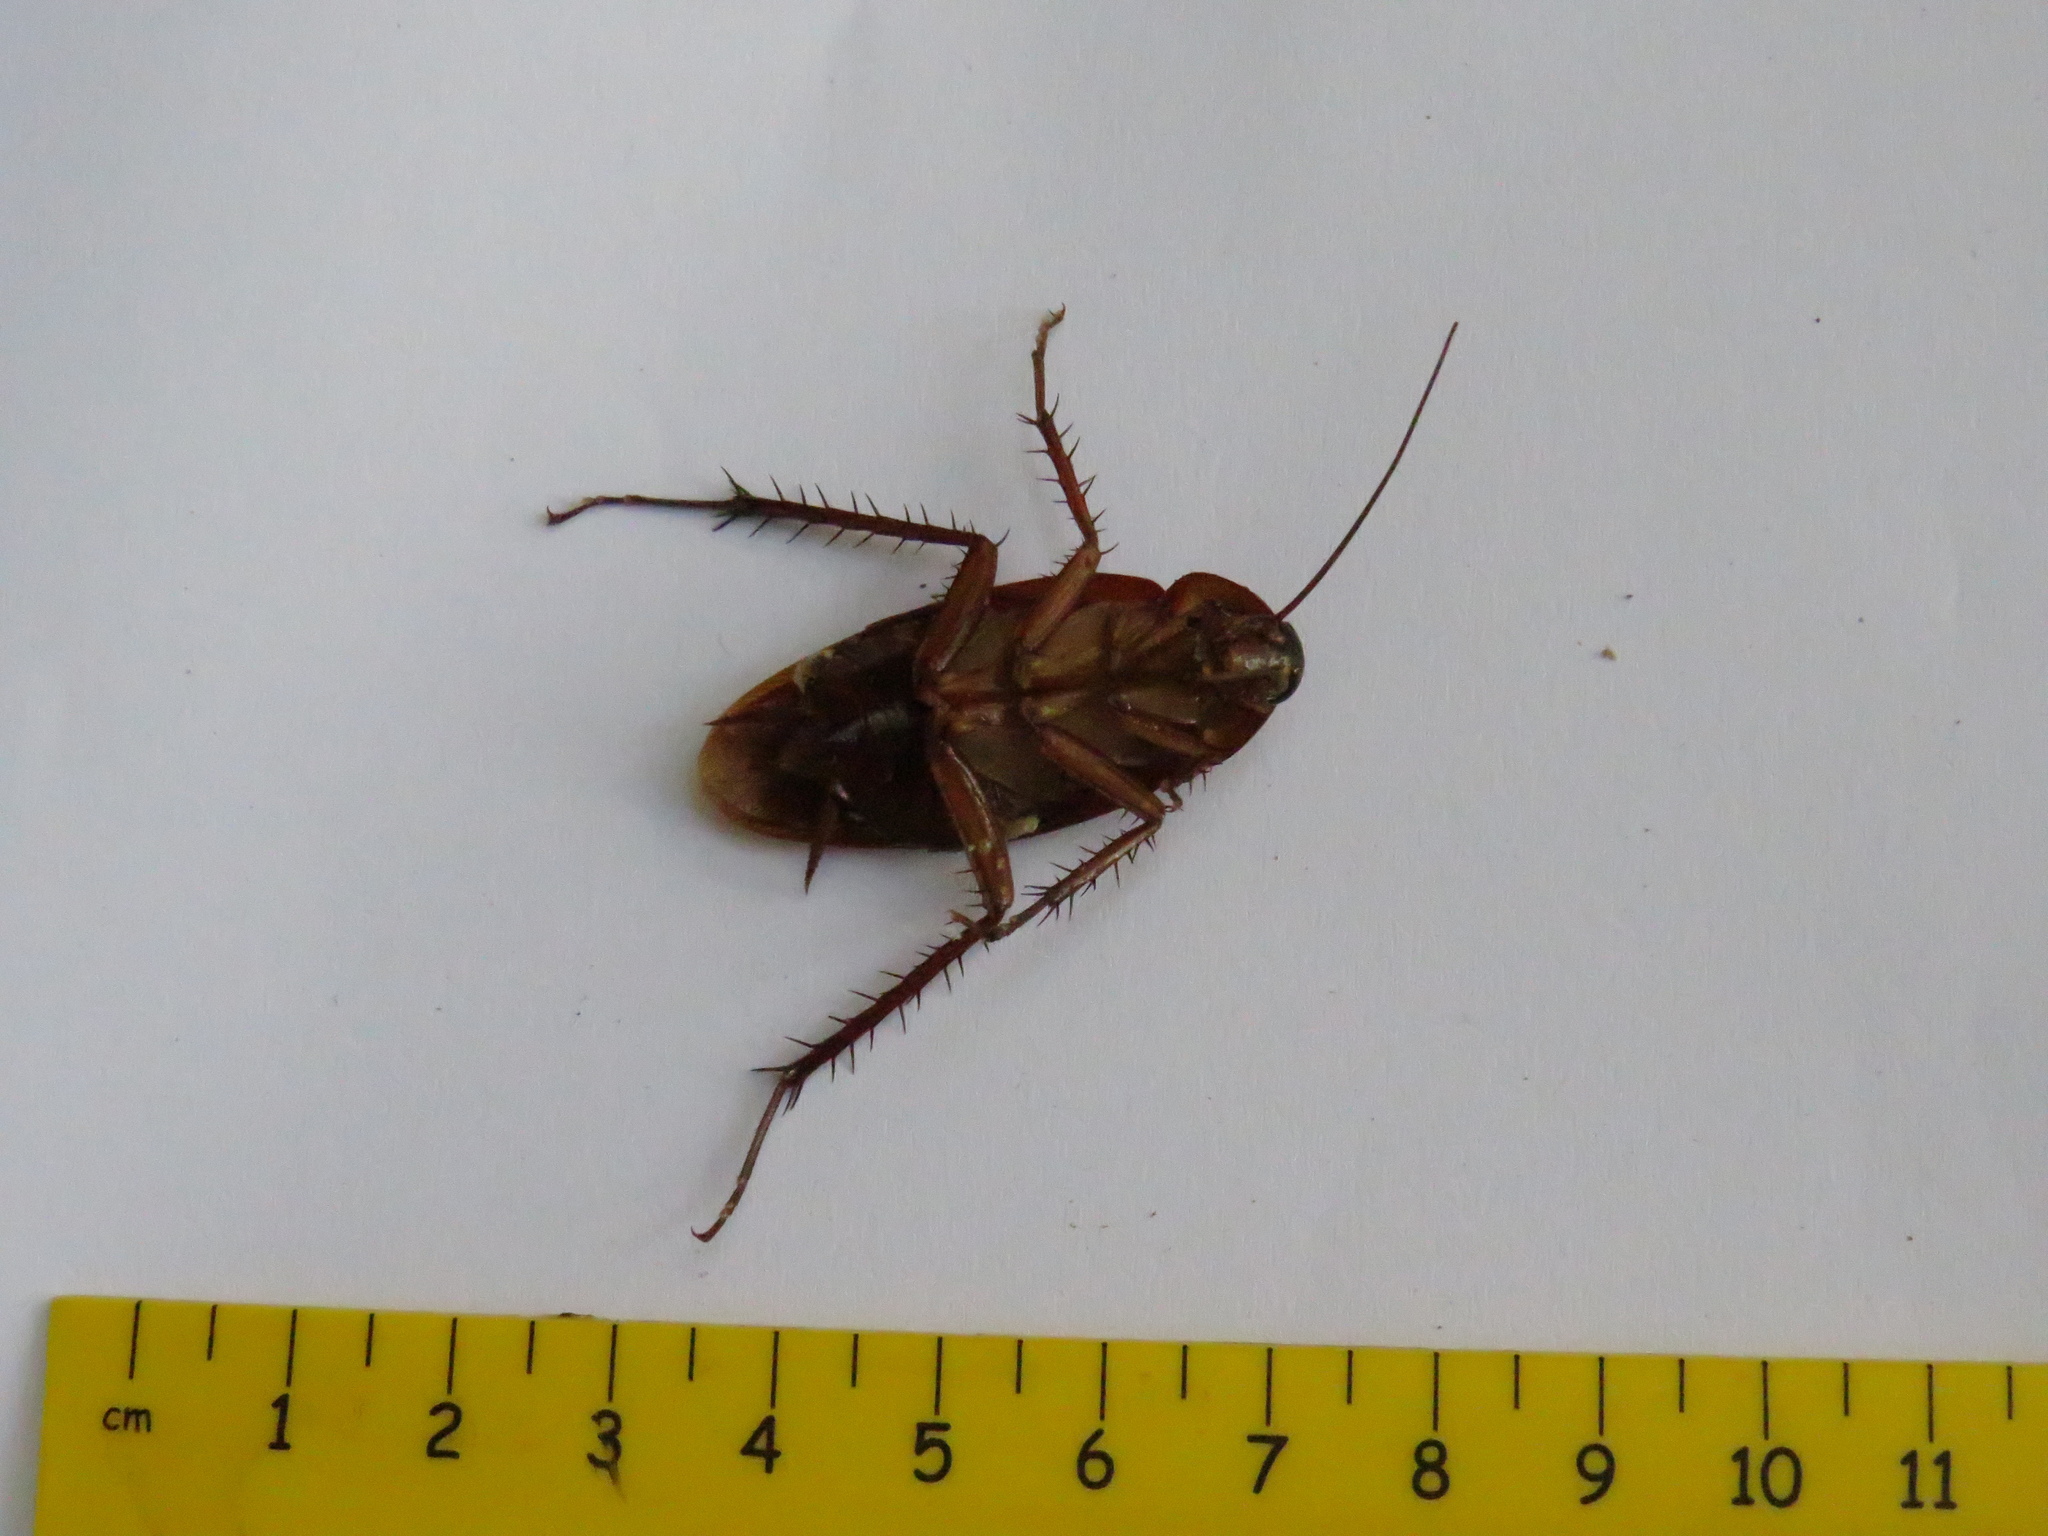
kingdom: Animalia
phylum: Arthropoda
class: Insecta
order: Blattodea
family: Blattidae
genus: Periplaneta
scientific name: Periplaneta americana
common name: American cockroach
